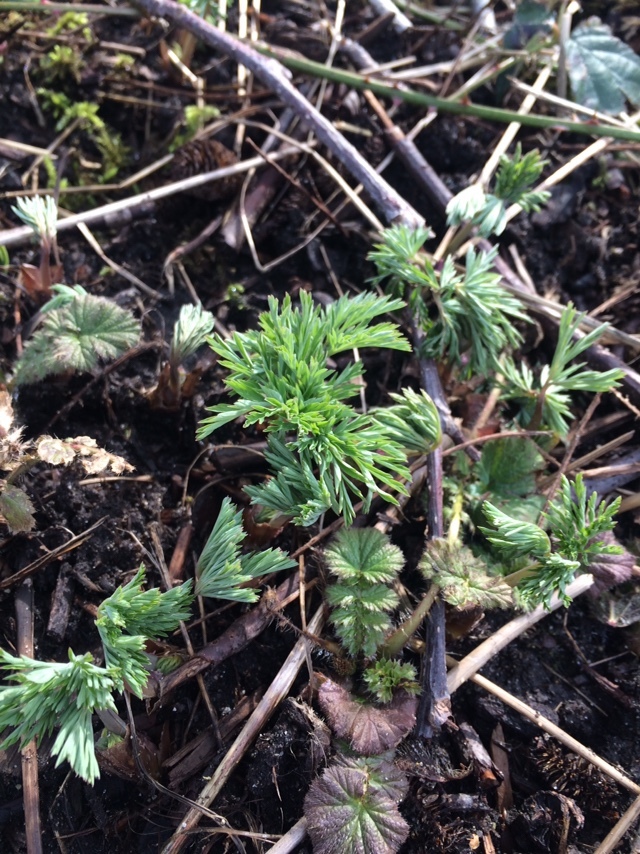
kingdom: Plantae
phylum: Tracheophyta
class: Magnoliopsida
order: Ranunculales
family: Papaveraceae
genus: Dicentra
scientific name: Dicentra formosa
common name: Bleeding-heart
